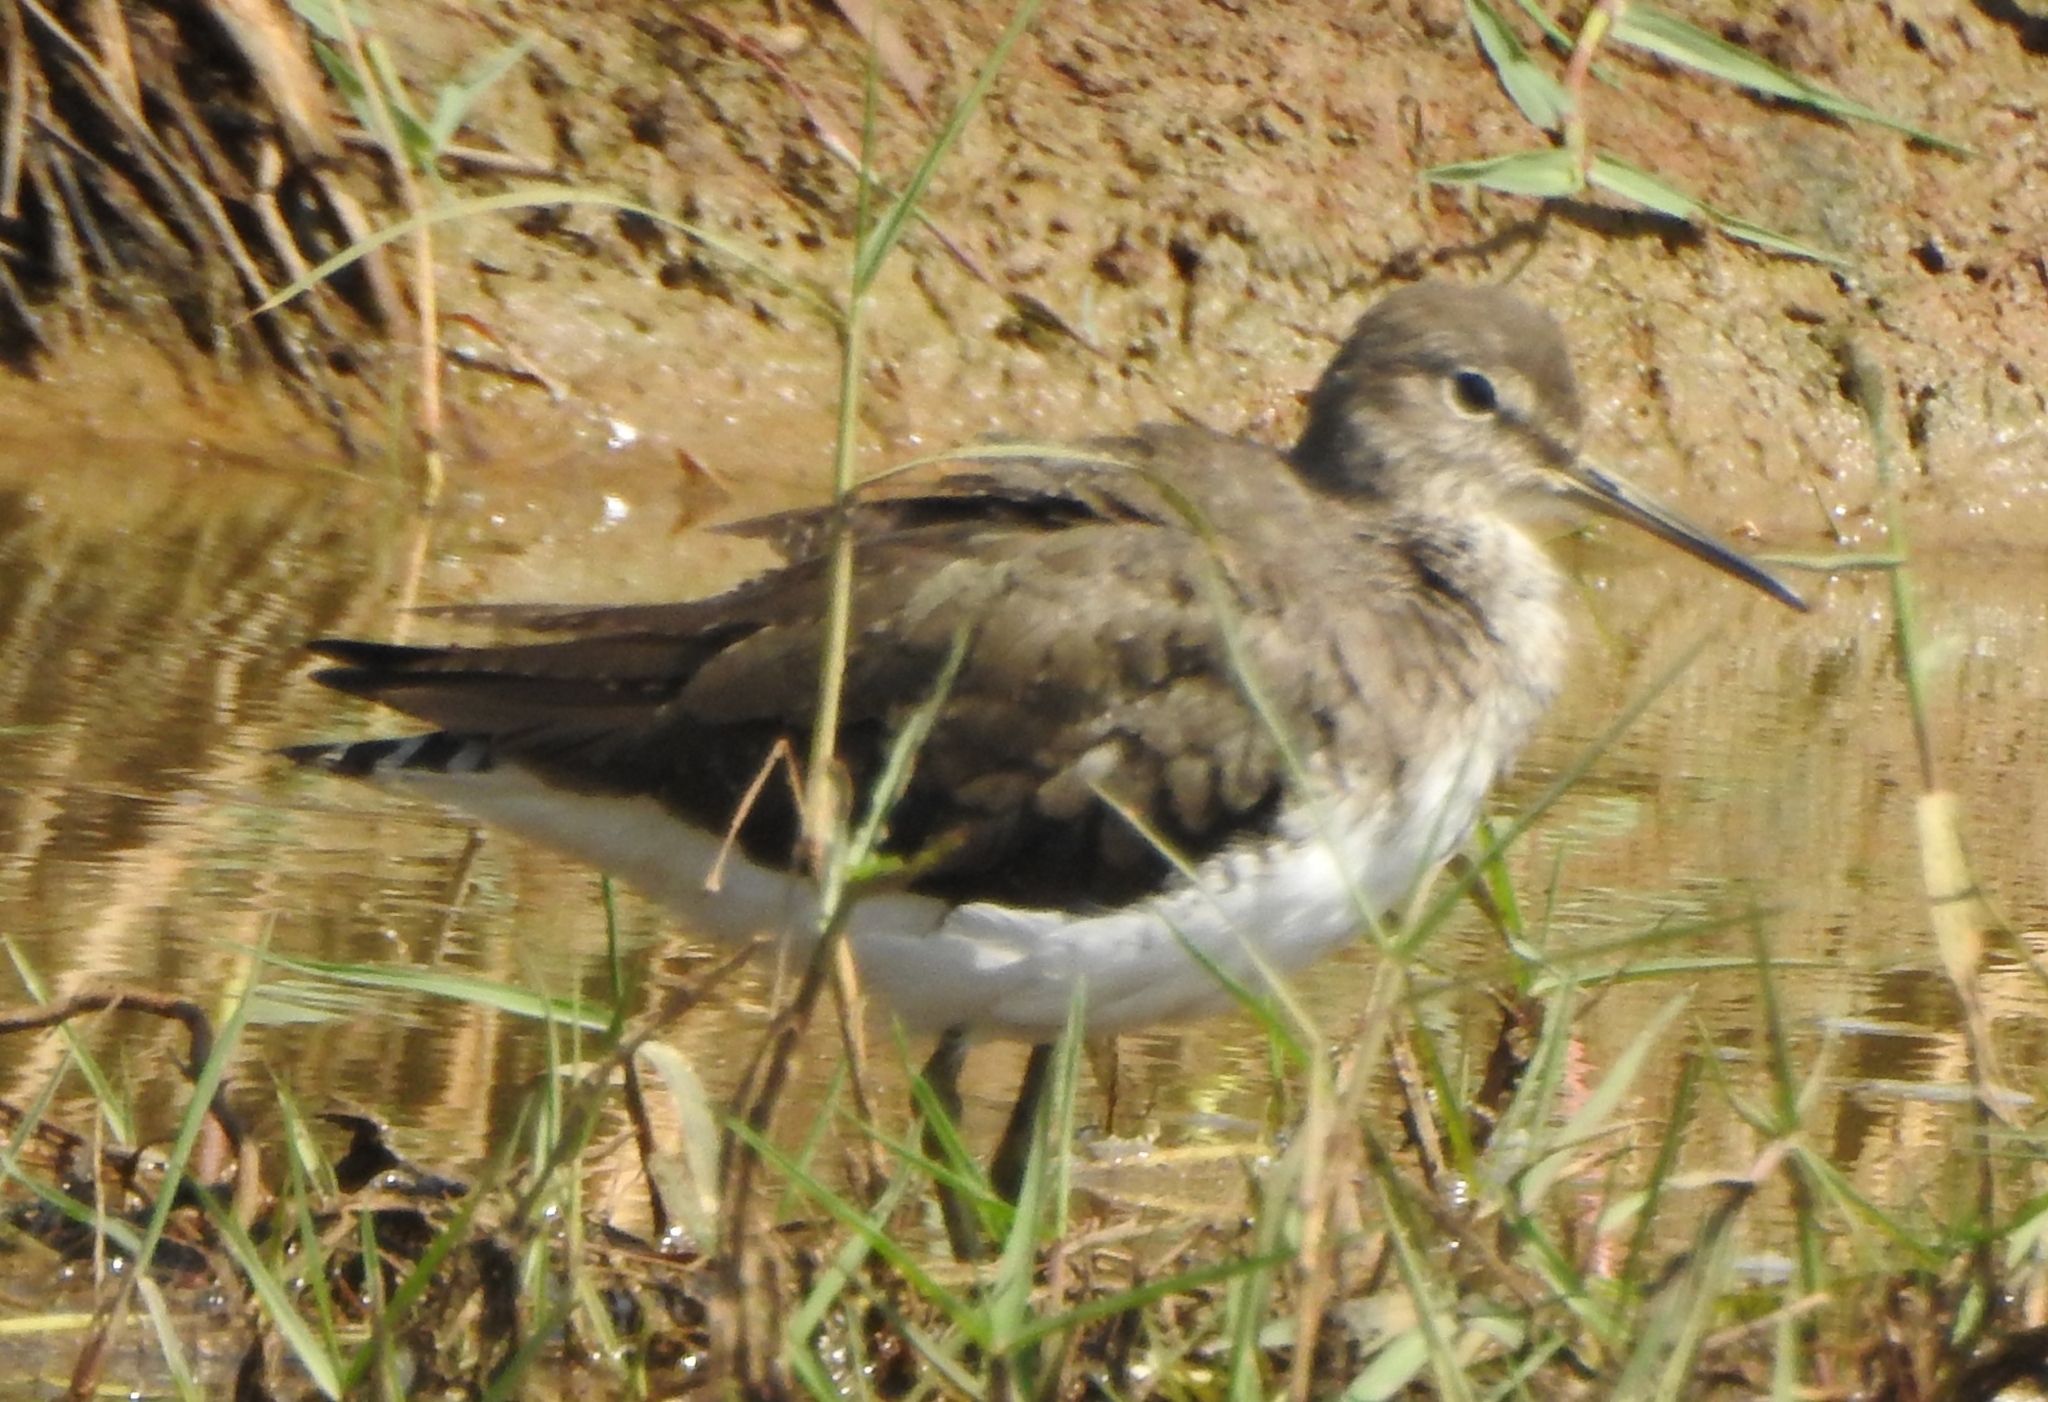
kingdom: Animalia
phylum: Chordata
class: Aves
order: Charadriiformes
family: Scolopacidae
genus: Tringa
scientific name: Tringa ochropus
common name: Green sandpiper
